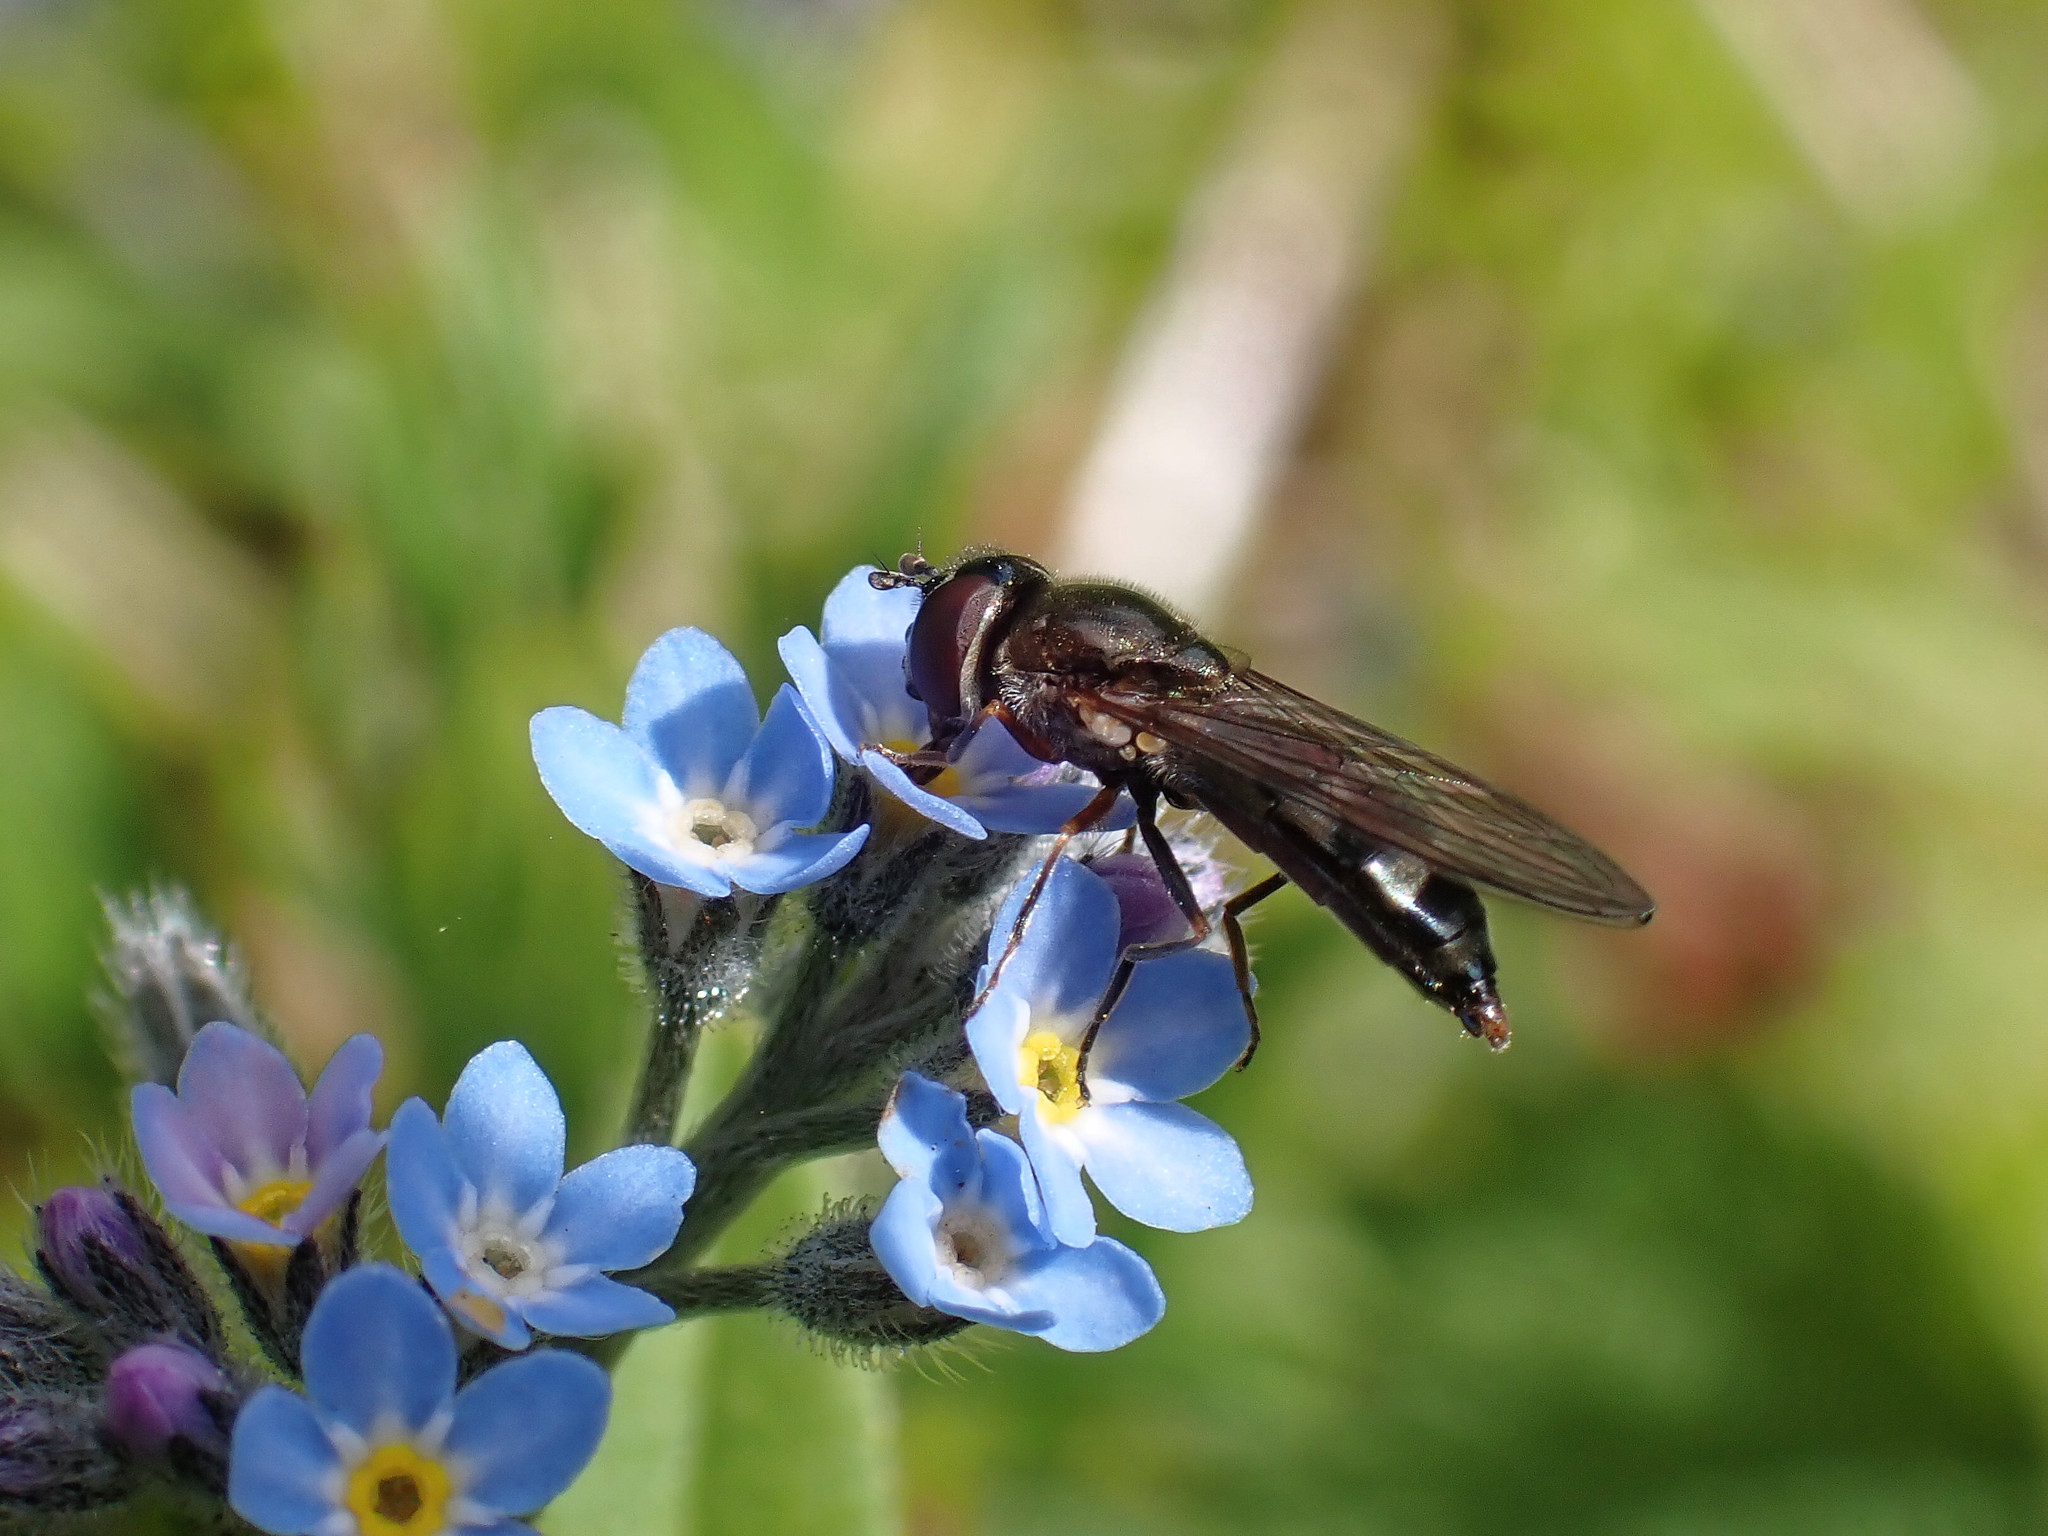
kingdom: Animalia
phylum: Arthropoda
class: Insecta
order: Diptera
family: Syrphidae
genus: Platycheirus
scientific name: Platycheirus albimanus
